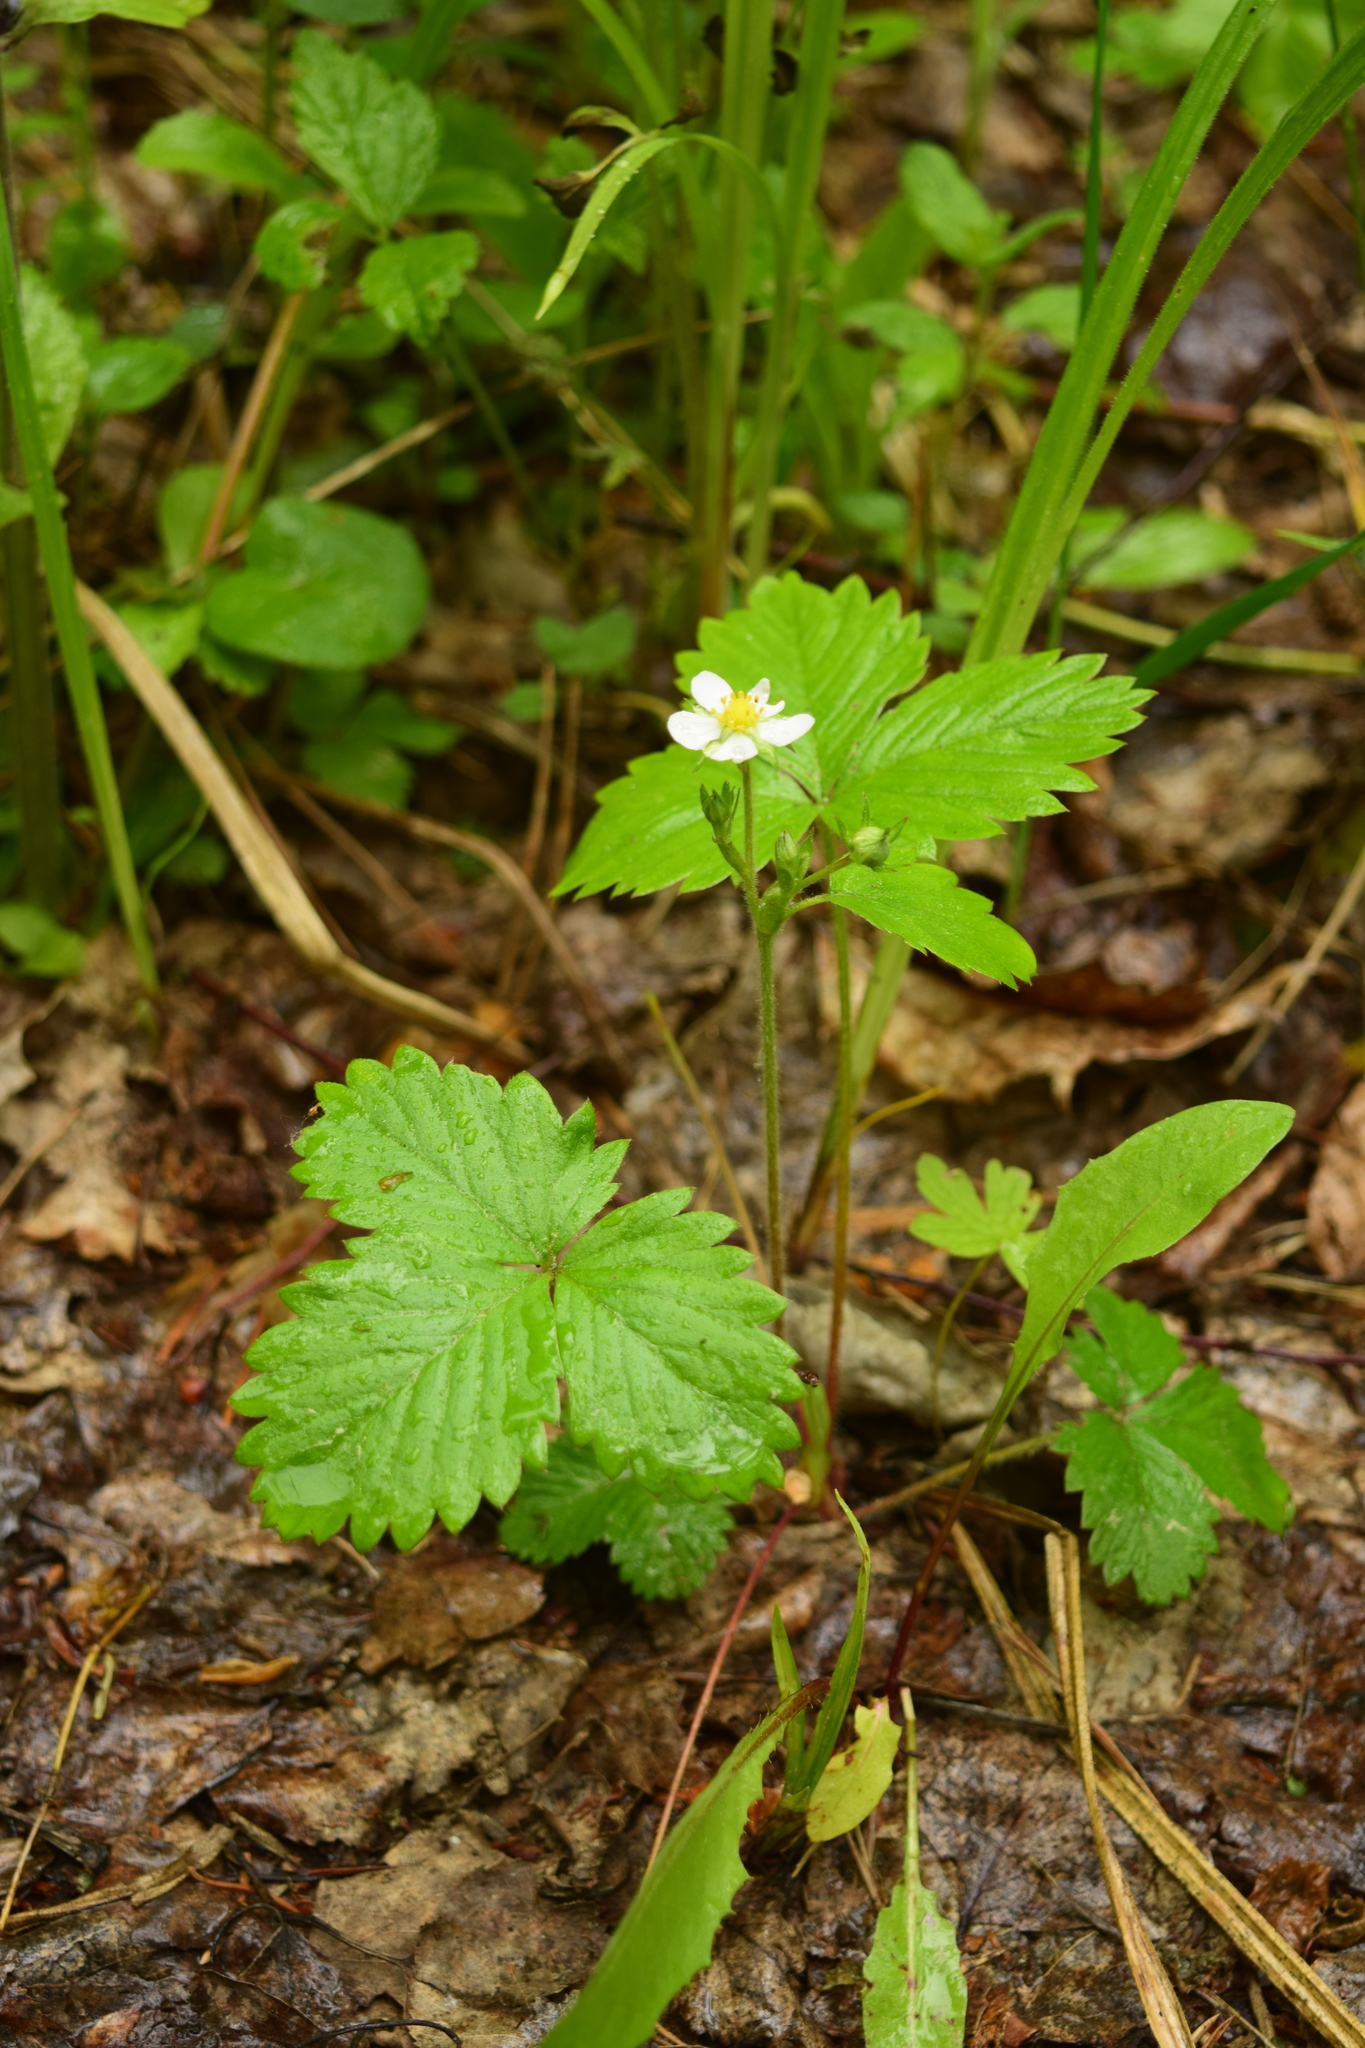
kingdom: Plantae
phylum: Tracheophyta
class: Magnoliopsida
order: Rosales
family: Rosaceae
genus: Fragaria
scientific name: Fragaria vesca
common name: Wild strawberry
